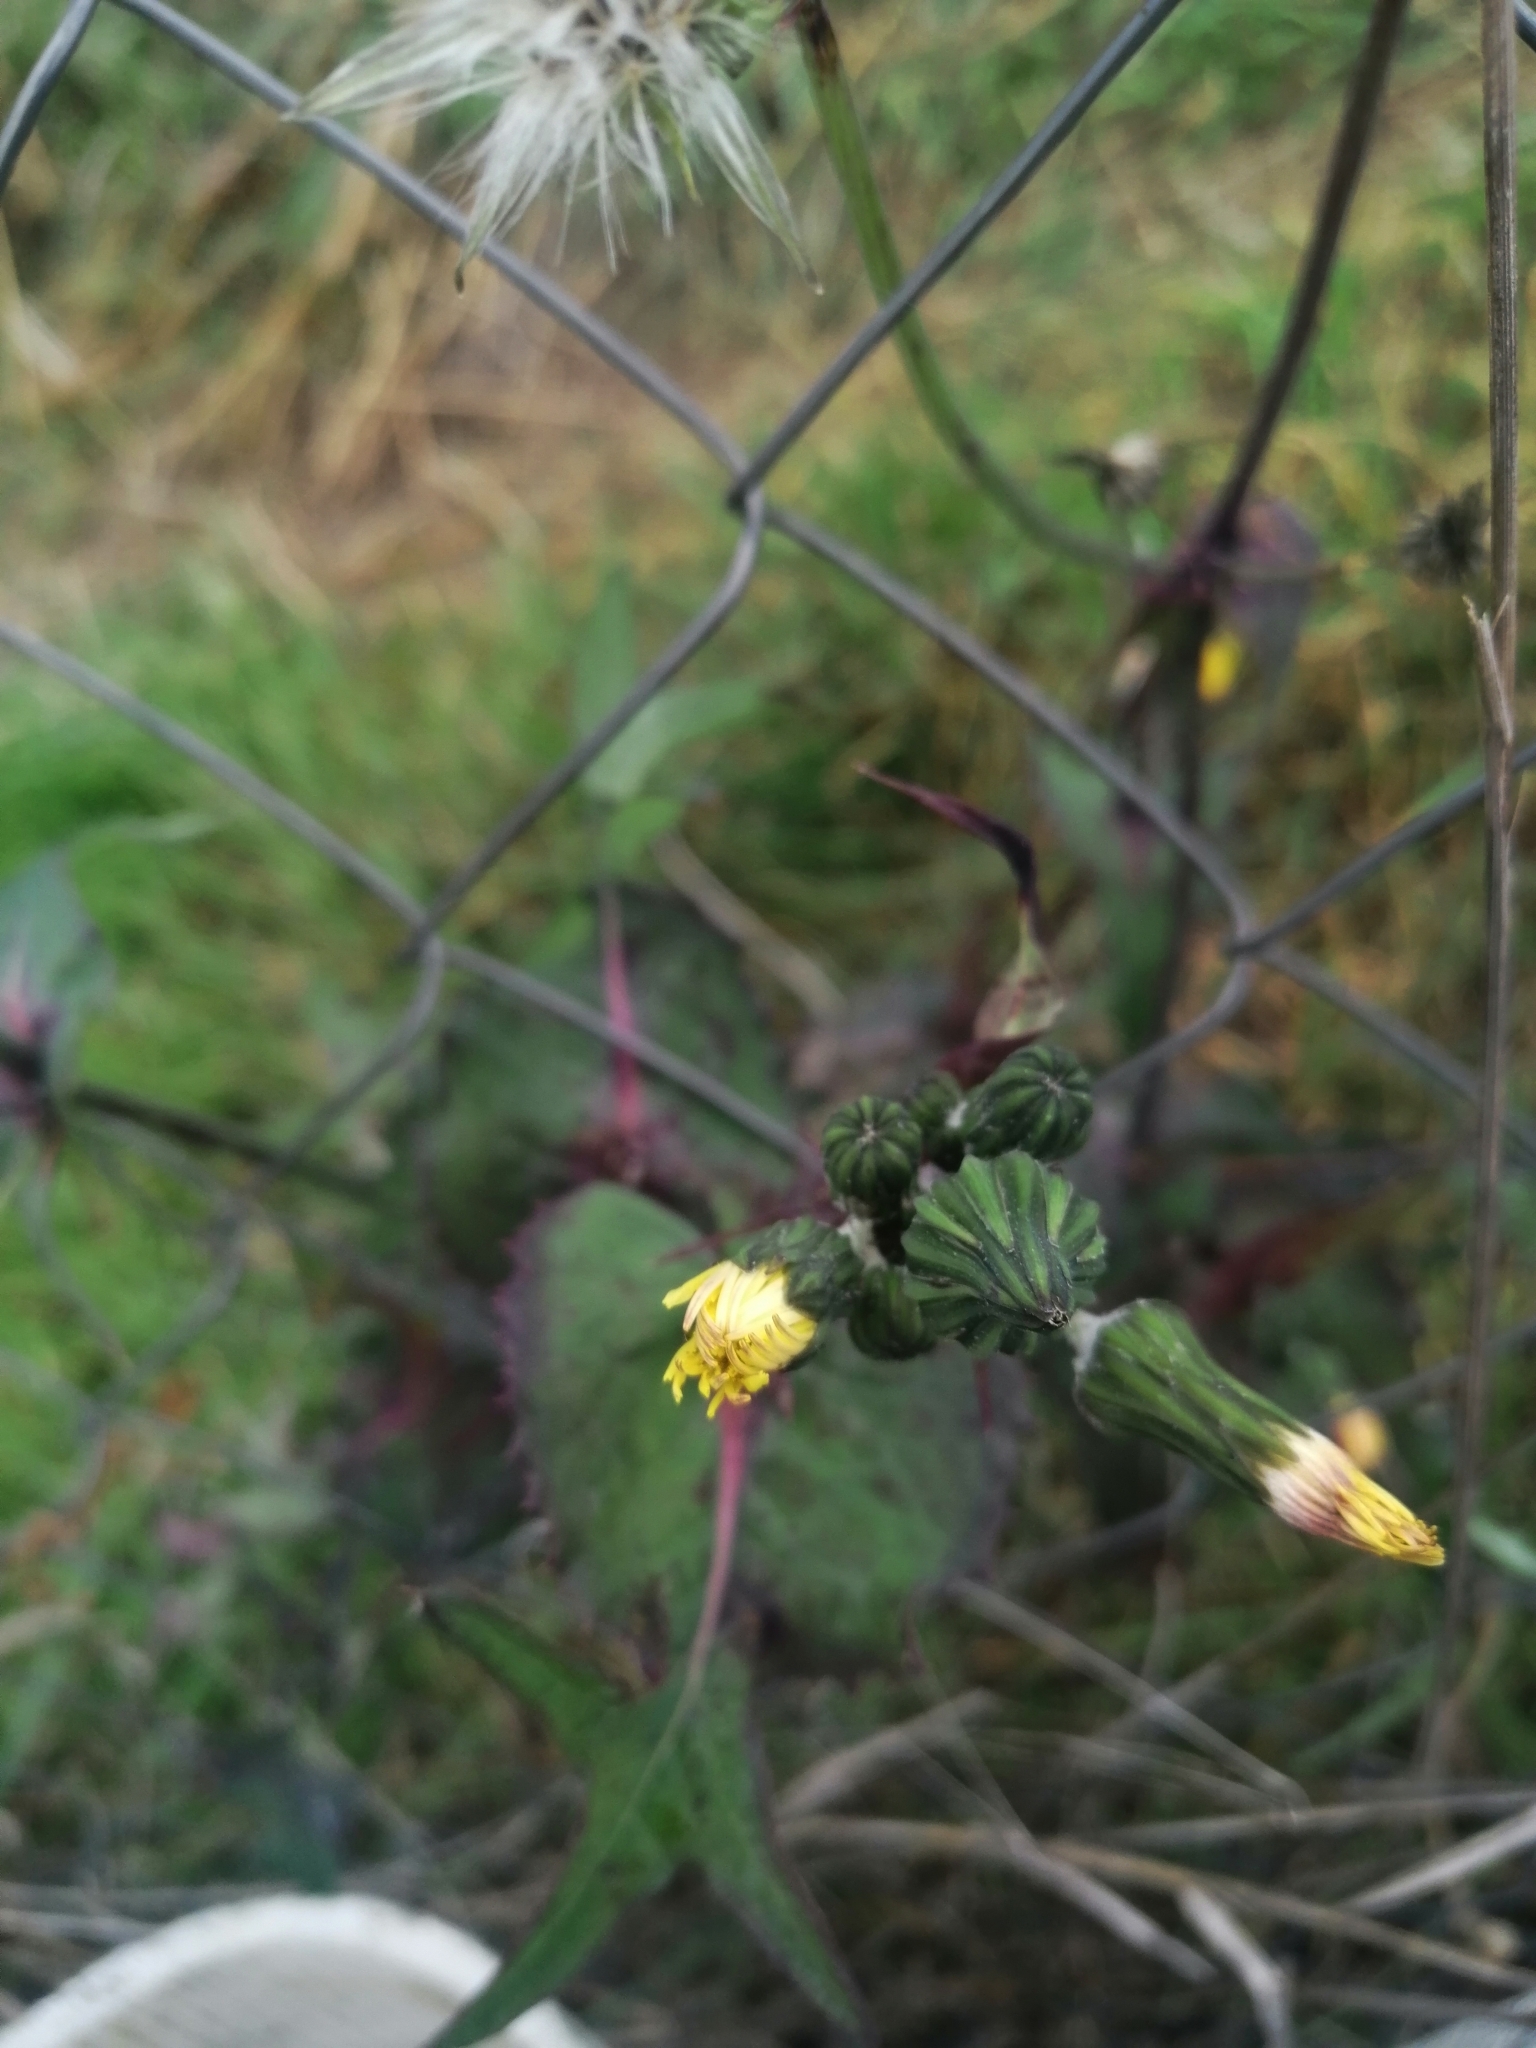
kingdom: Plantae
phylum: Tracheophyta
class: Magnoliopsida
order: Asterales
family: Asteraceae
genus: Sonchus
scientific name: Sonchus oleraceus
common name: Common sowthistle
